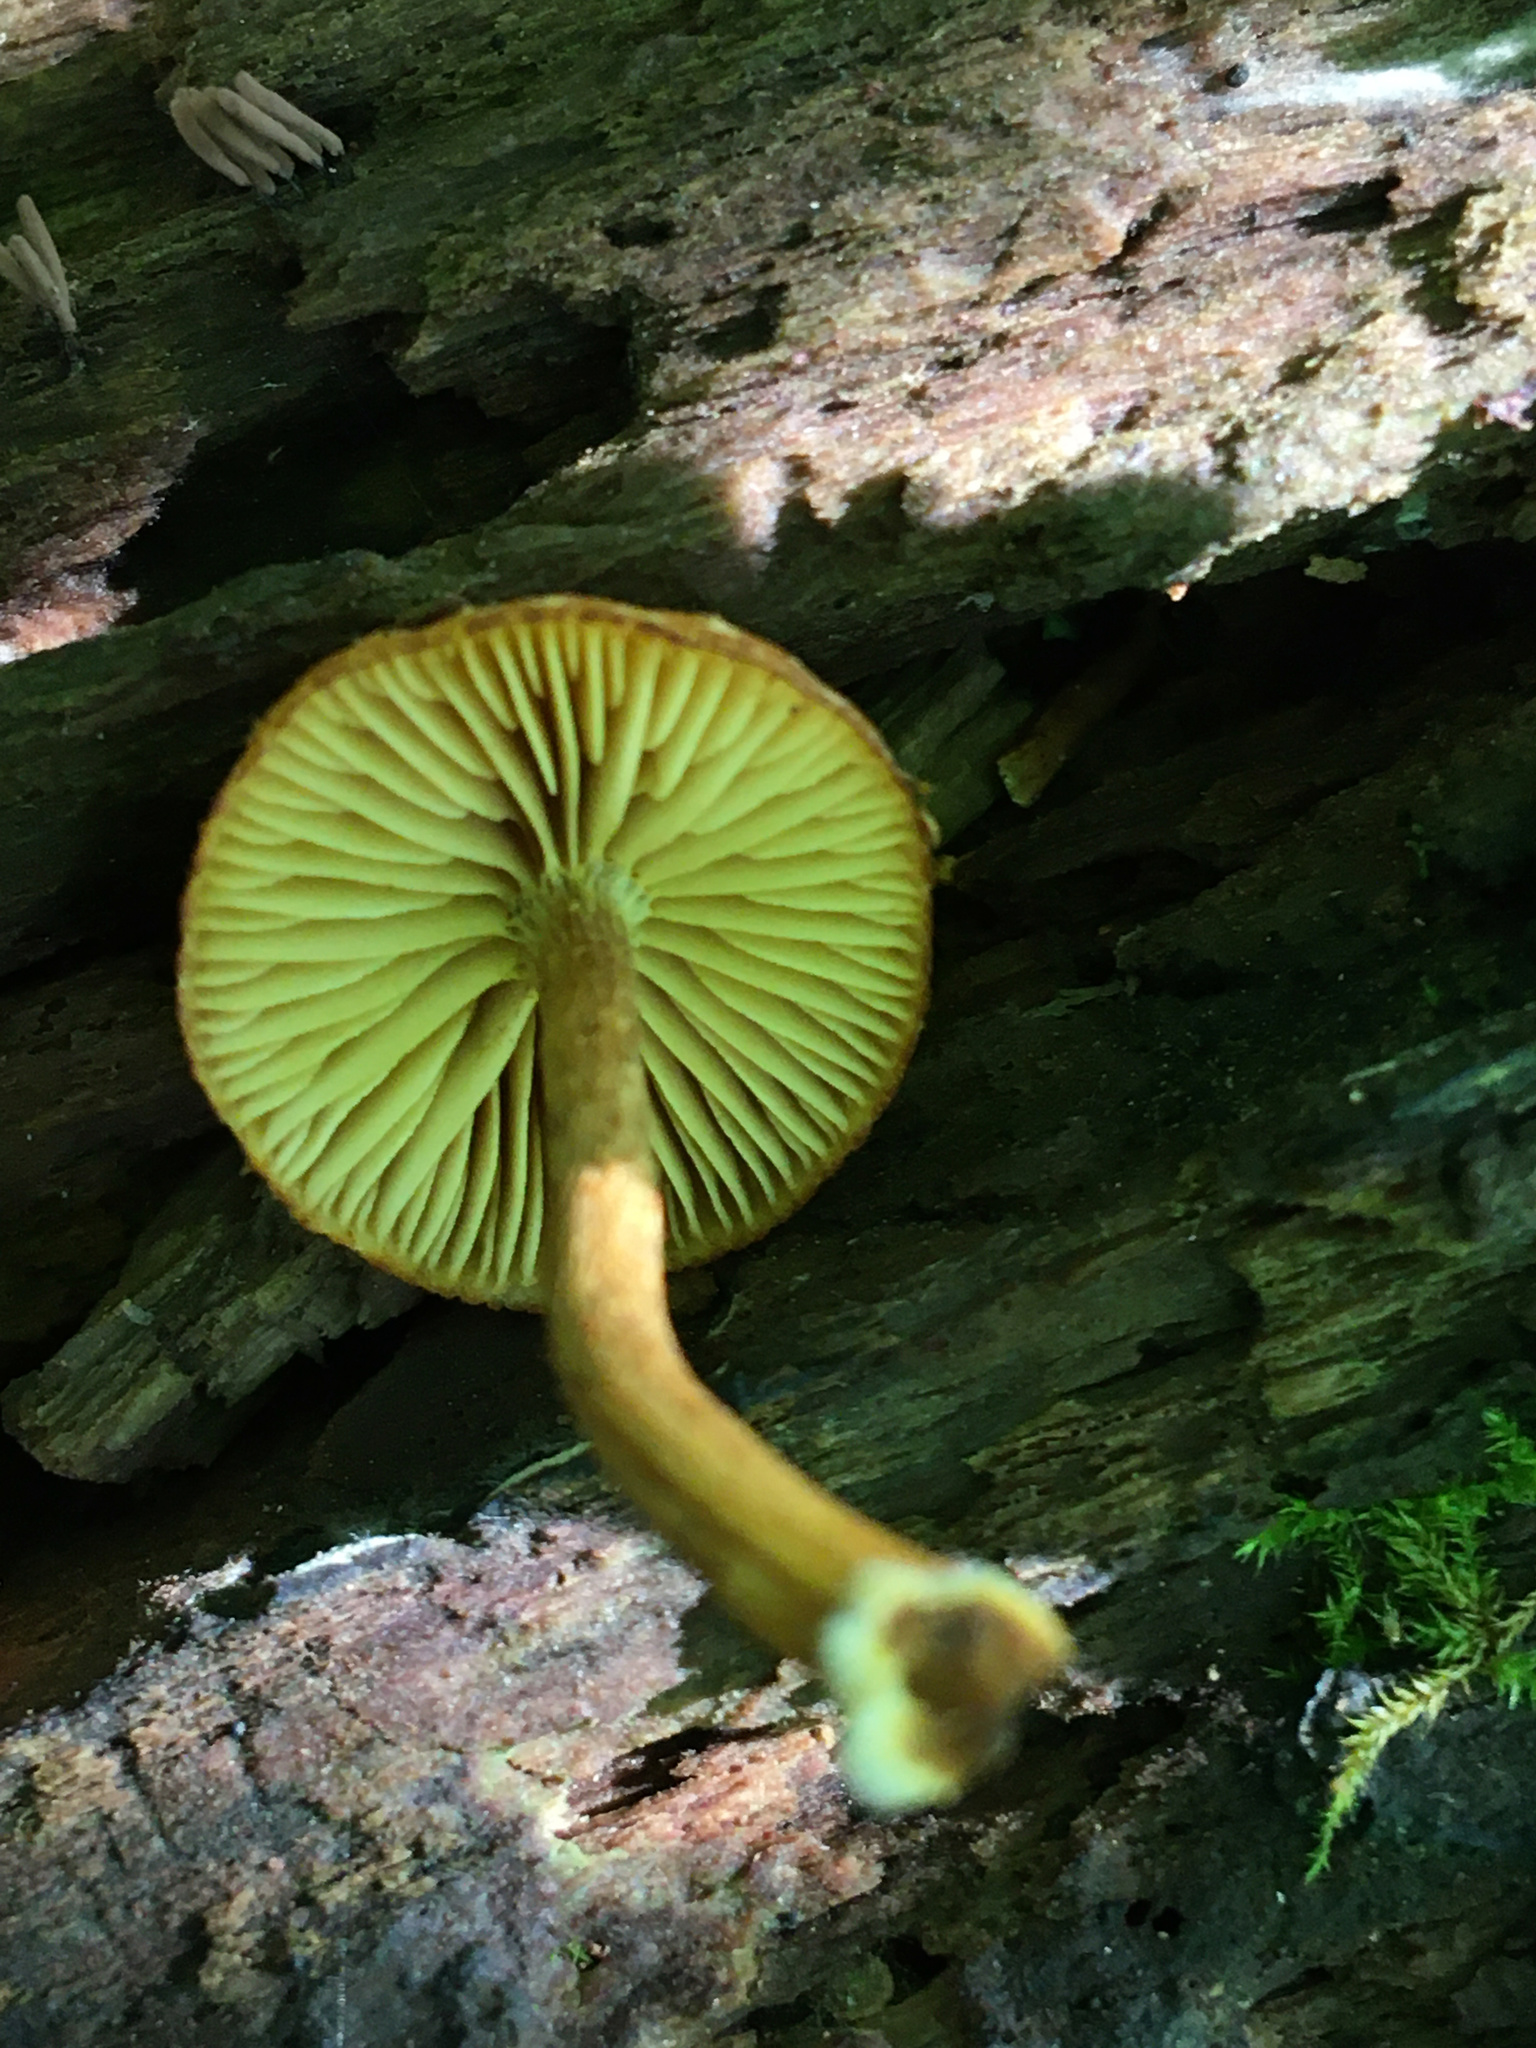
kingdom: Fungi
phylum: Basidiomycota
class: Agaricomycetes
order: Agaricales
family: Strophariaceae
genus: Pholiota
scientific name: Pholiota granulosa
